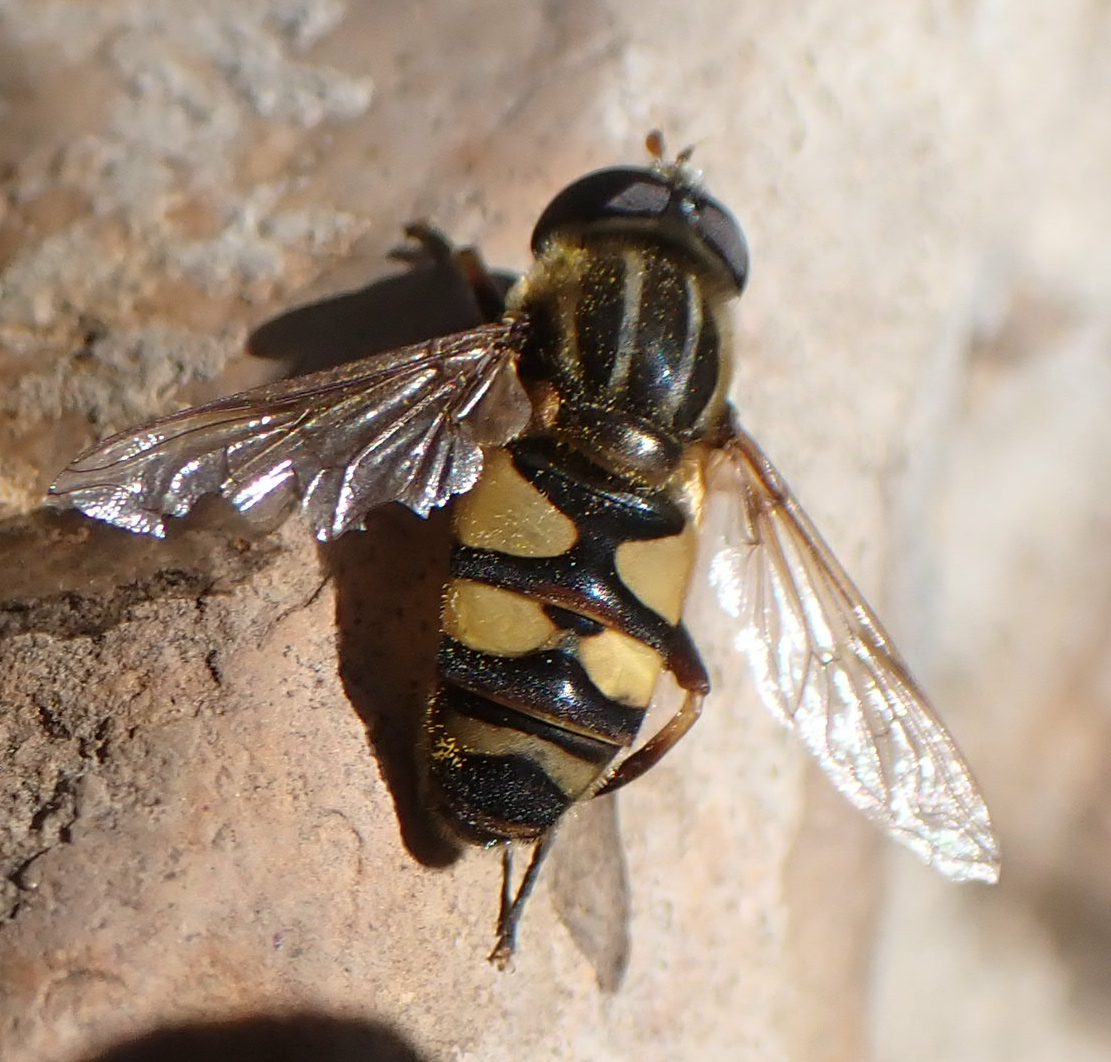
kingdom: Animalia
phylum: Arthropoda
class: Insecta
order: Diptera
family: Syrphidae
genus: Helophilus
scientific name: Helophilus fasciatus
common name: Narrow-headed marsh fly
